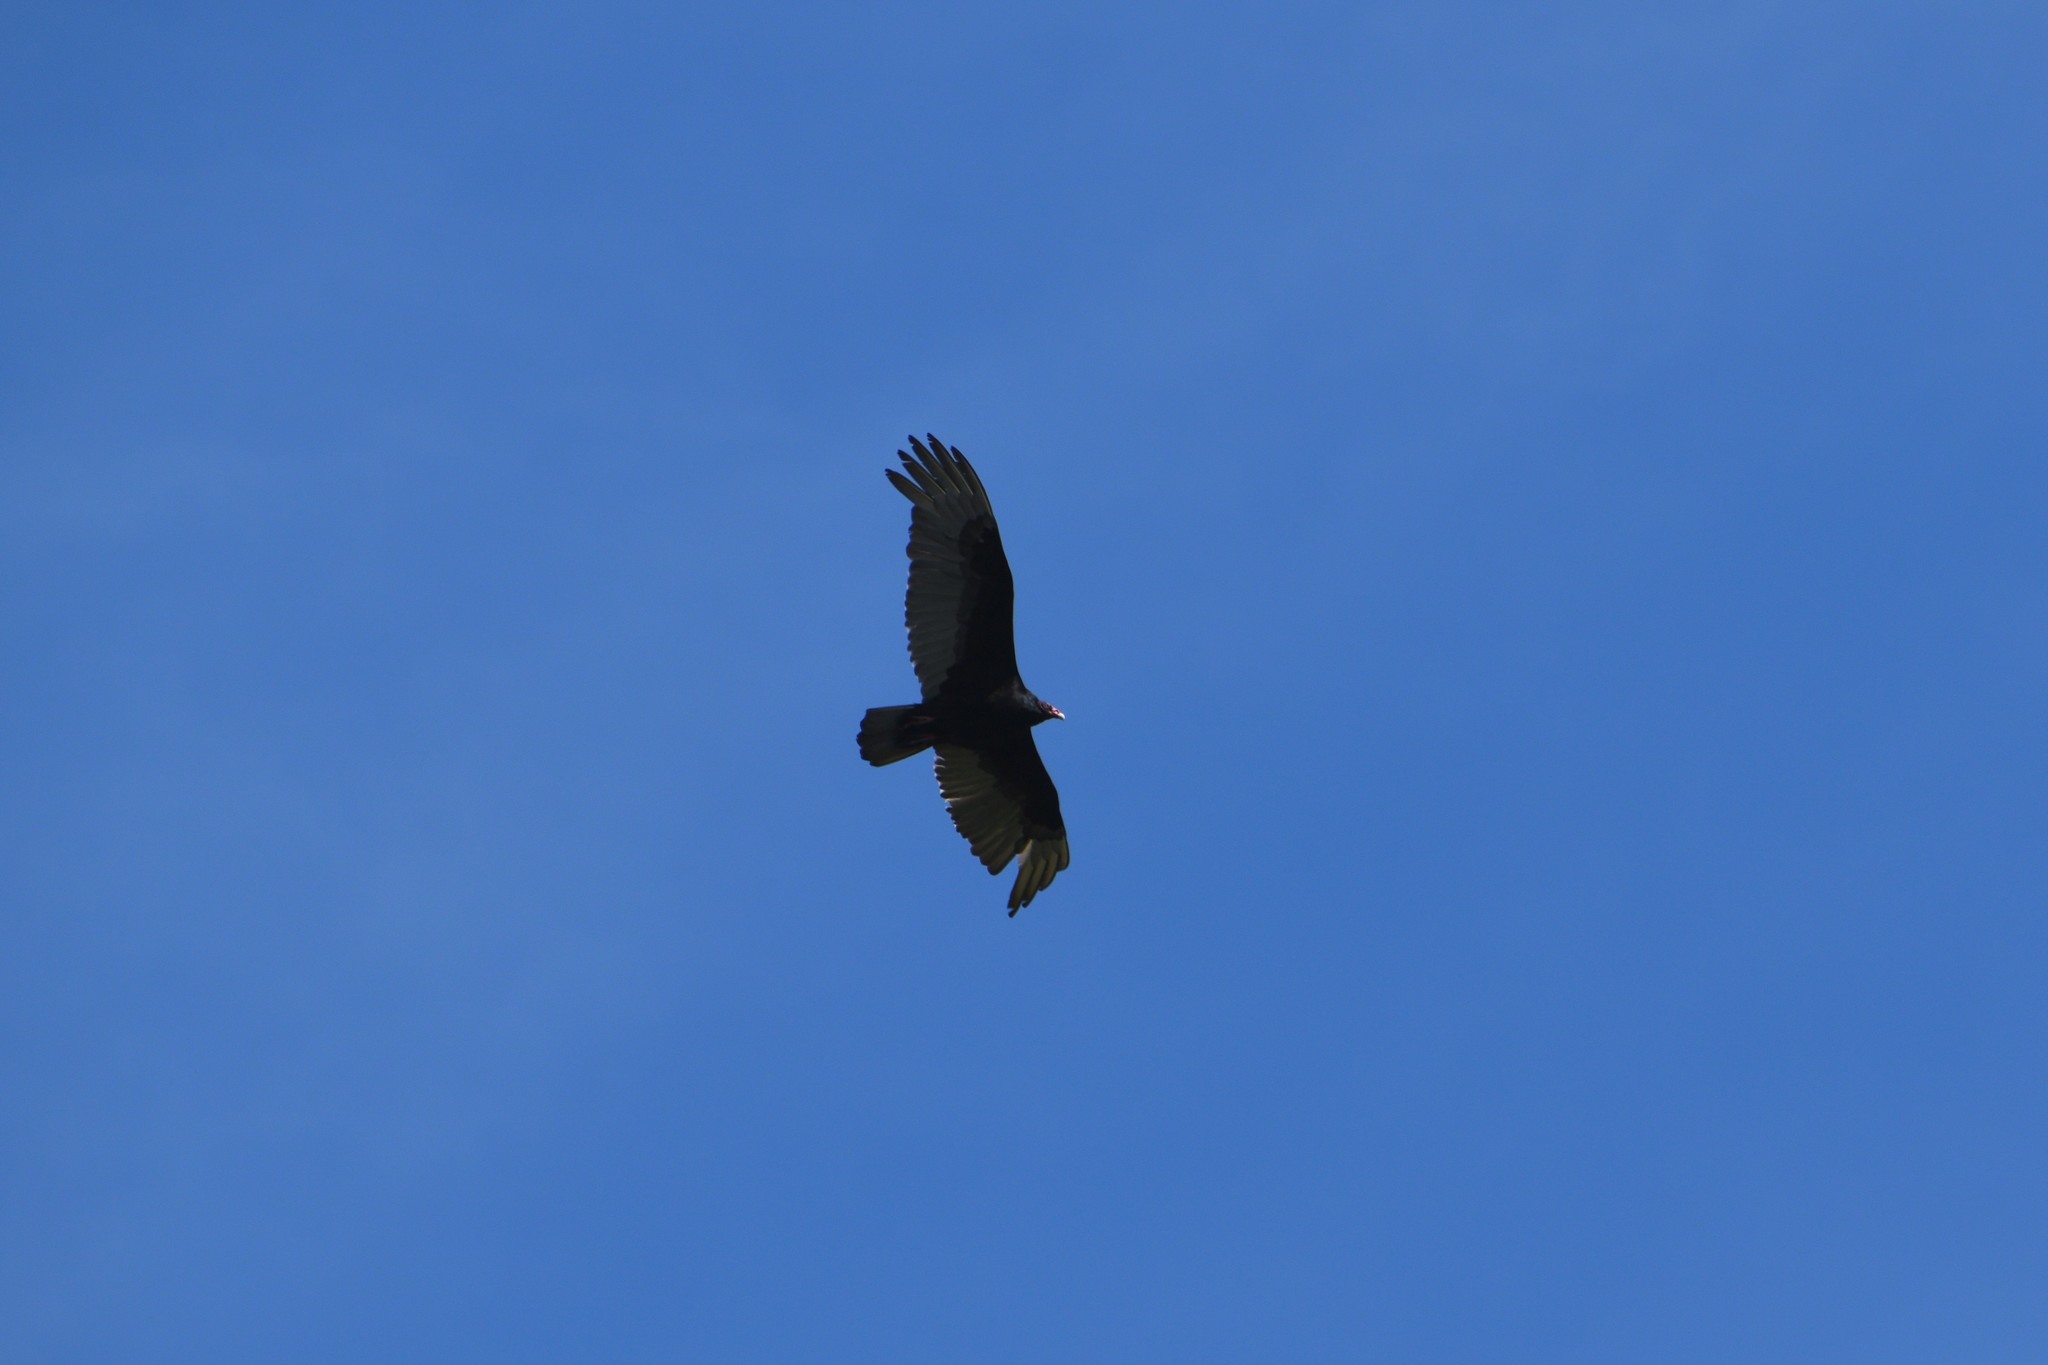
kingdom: Animalia
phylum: Chordata
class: Aves
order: Accipitriformes
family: Cathartidae
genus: Cathartes
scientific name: Cathartes aura
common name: Turkey vulture
